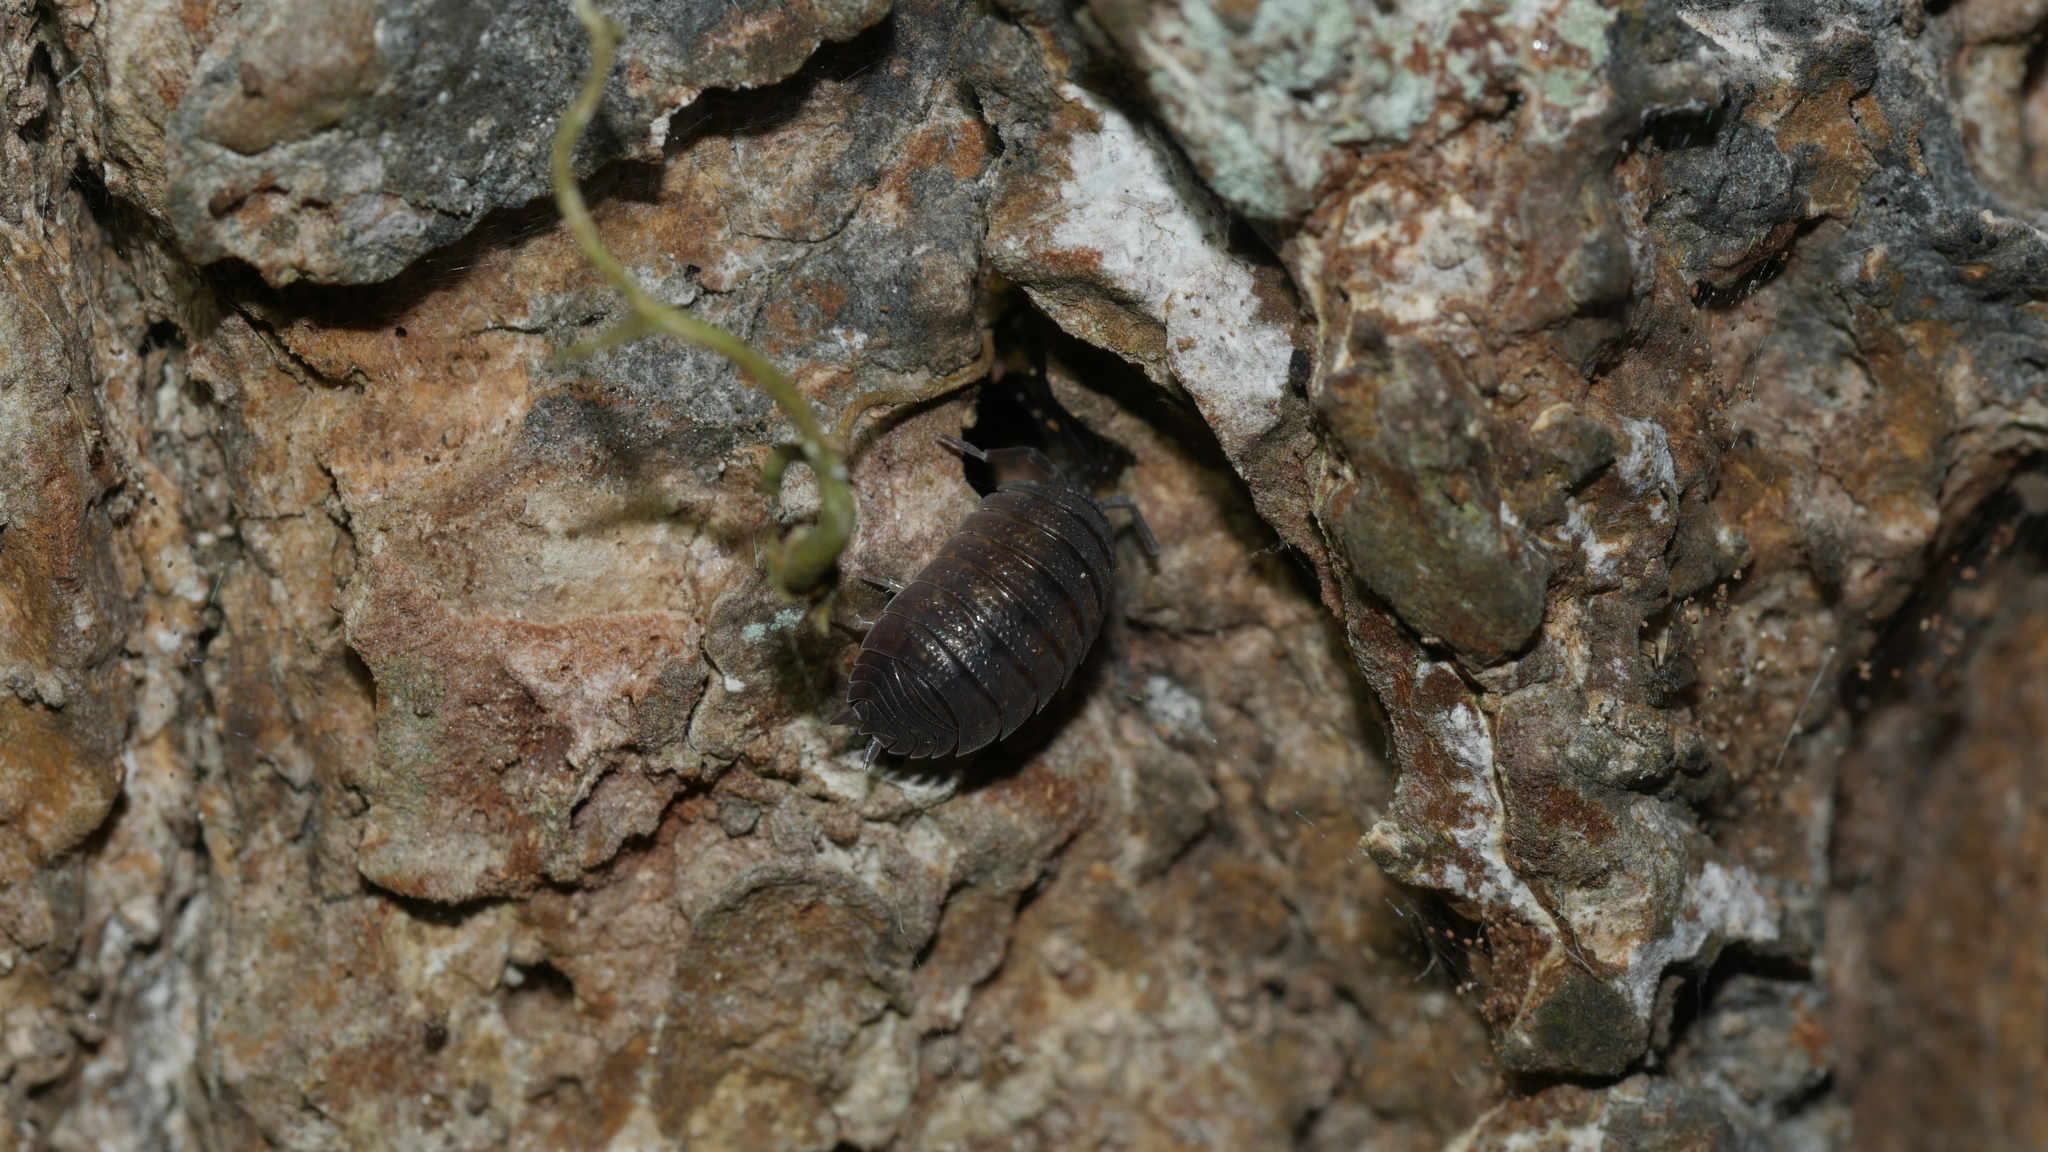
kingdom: Animalia
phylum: Arthropoda
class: Malacostraca
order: Isopoda
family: Porcellionidae
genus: Porcellio
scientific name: Porcellio scaber
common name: Common rough woodlouse
